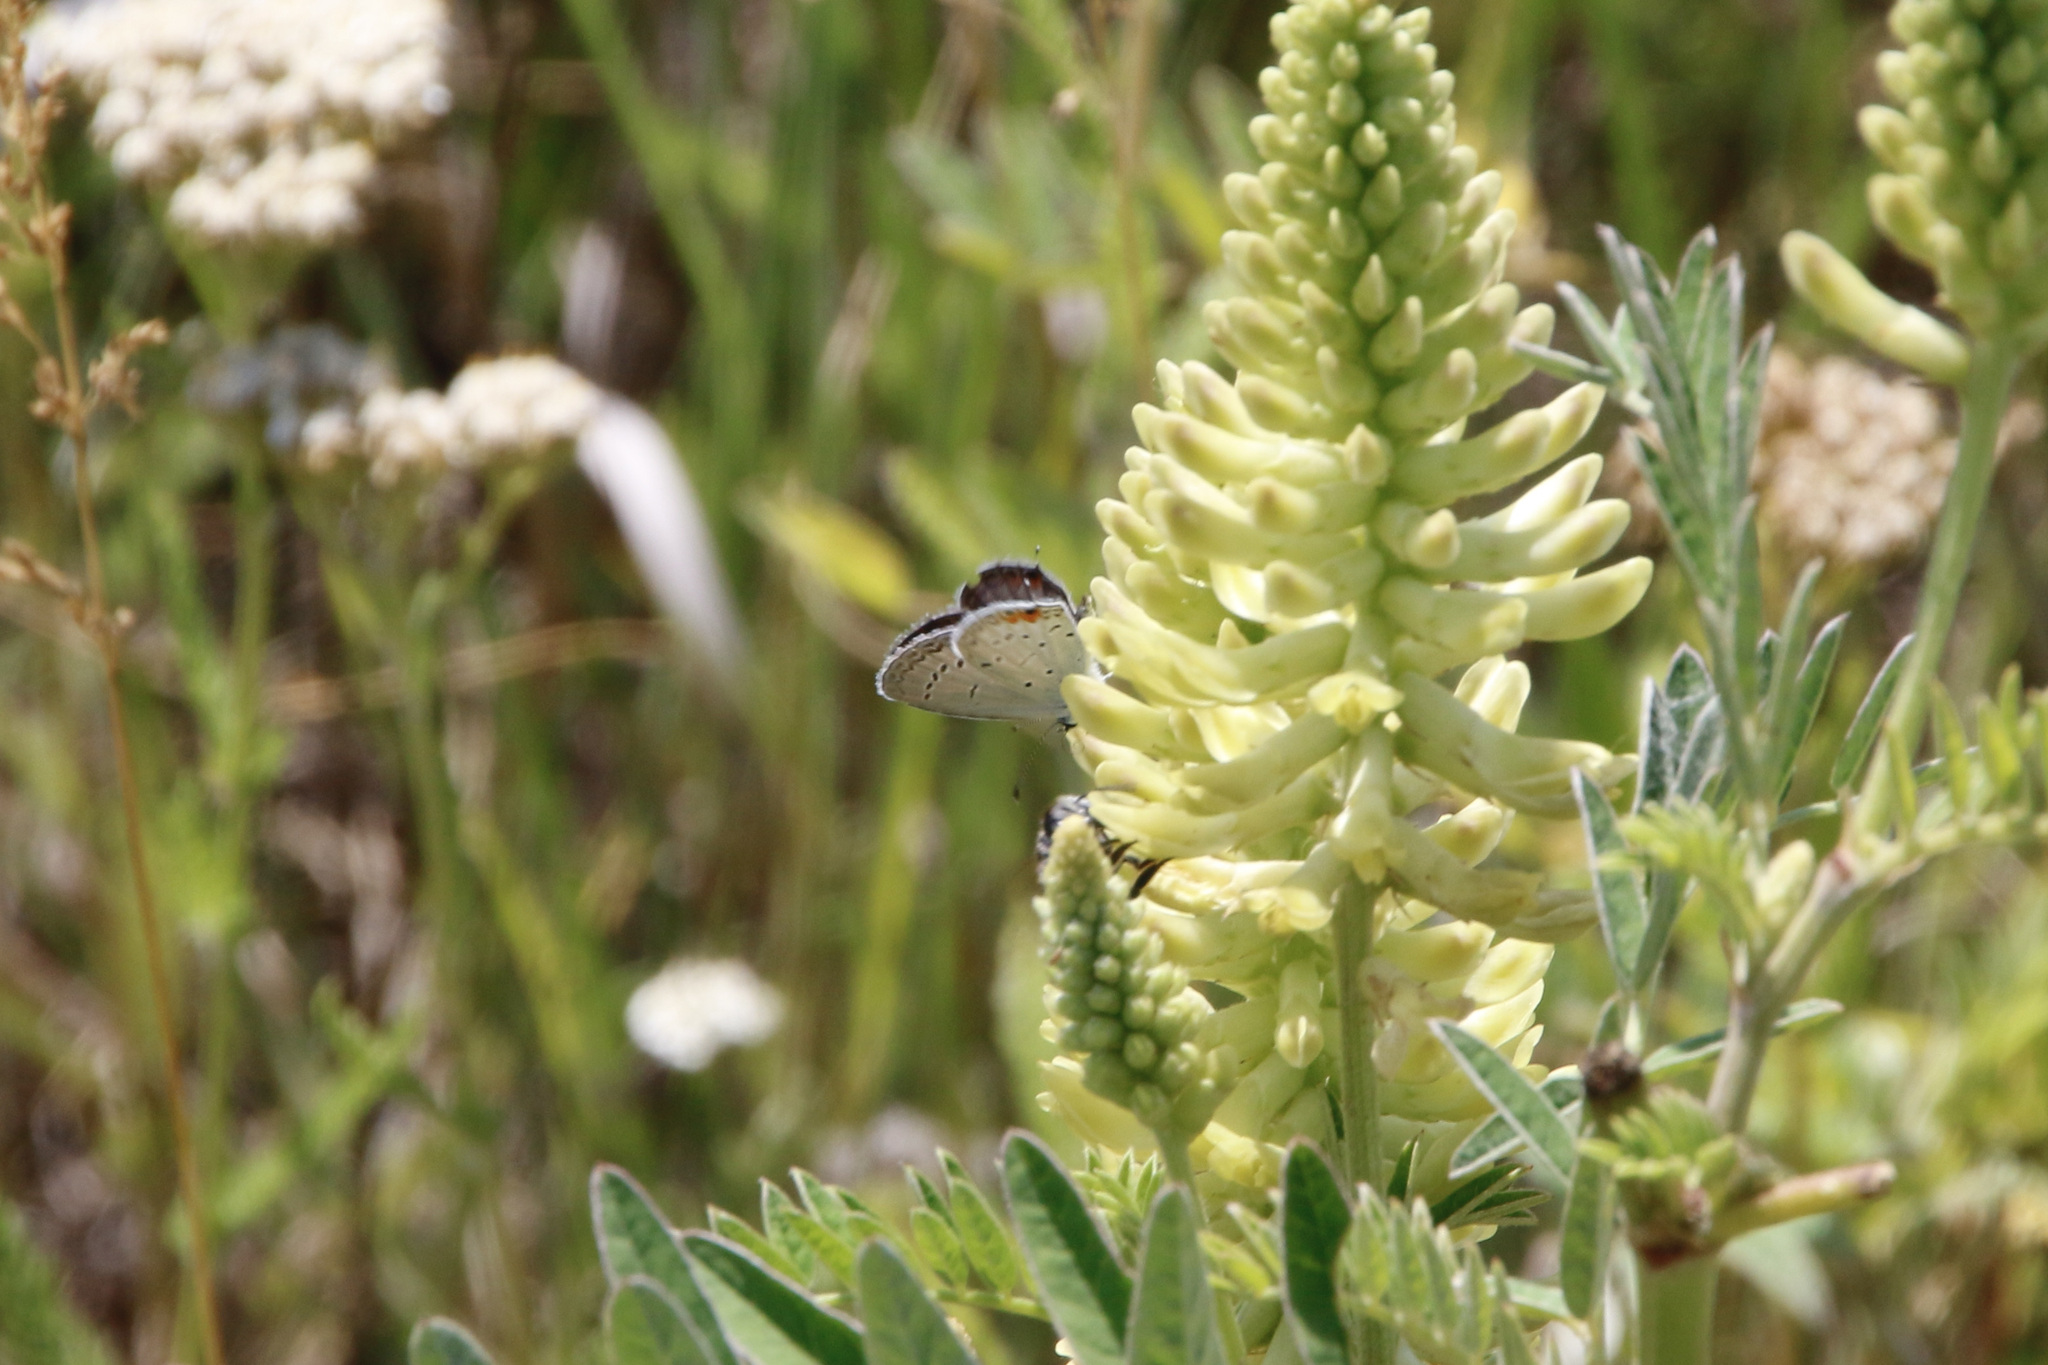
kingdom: Animalia
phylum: Arthropoda
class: Insecta
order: Lepidoptera
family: Lycaenidae
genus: Elkalyce
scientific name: Elkalyce comyntas
